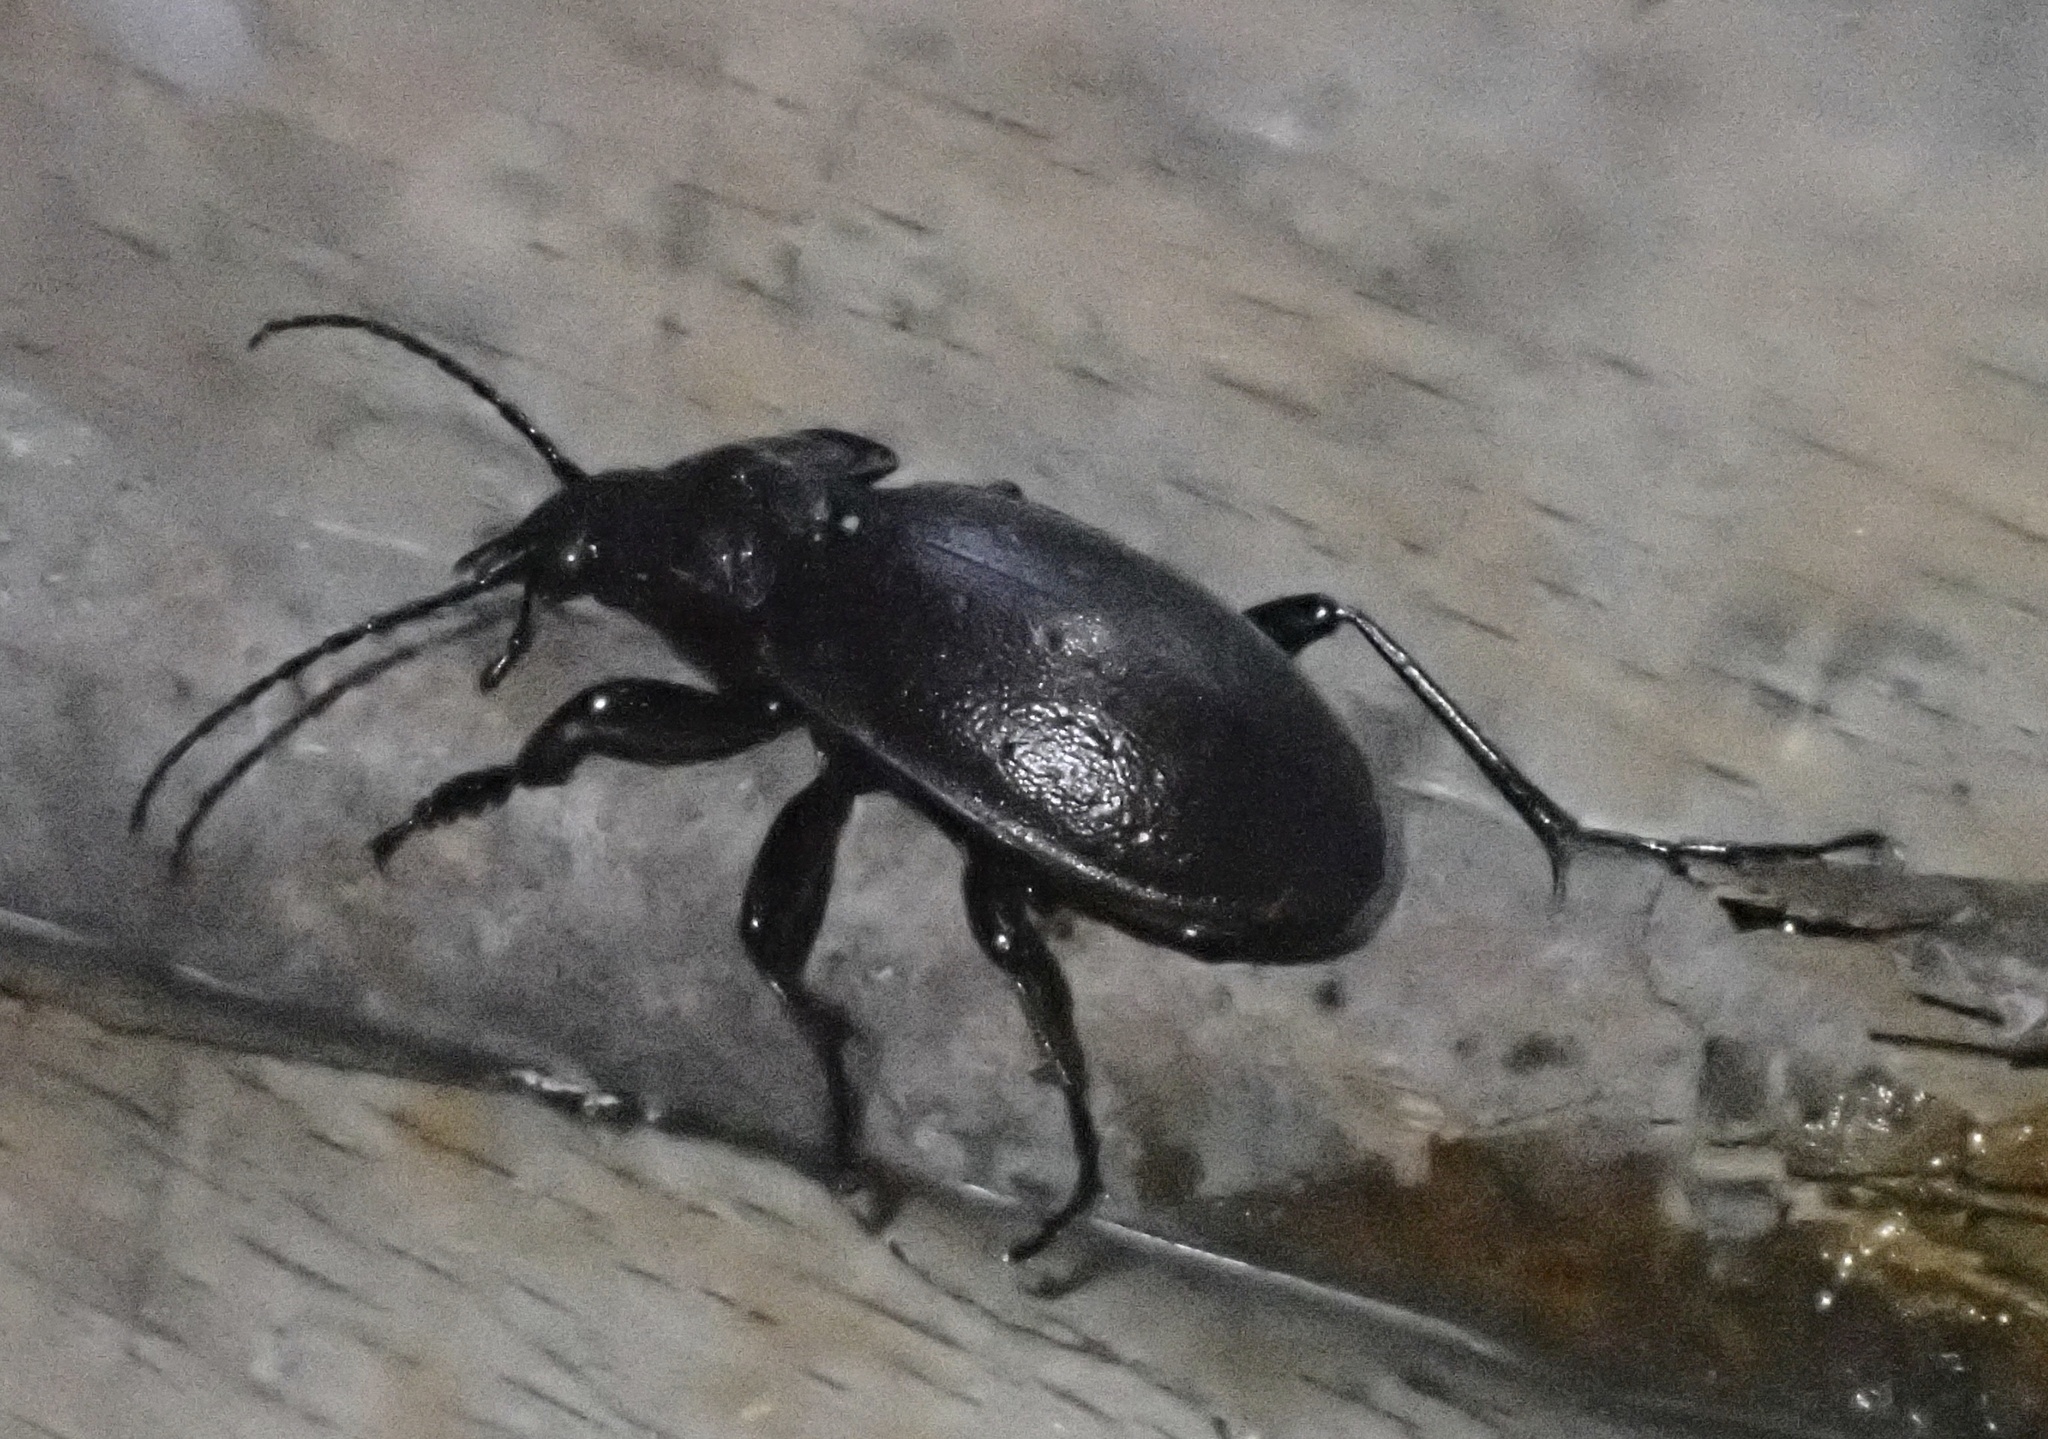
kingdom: Animalia
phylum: Arthropoda
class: Insecta
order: Coleoptera
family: Carabidae
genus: Carabus
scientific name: Carabus nemoralis
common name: European ground beetle
